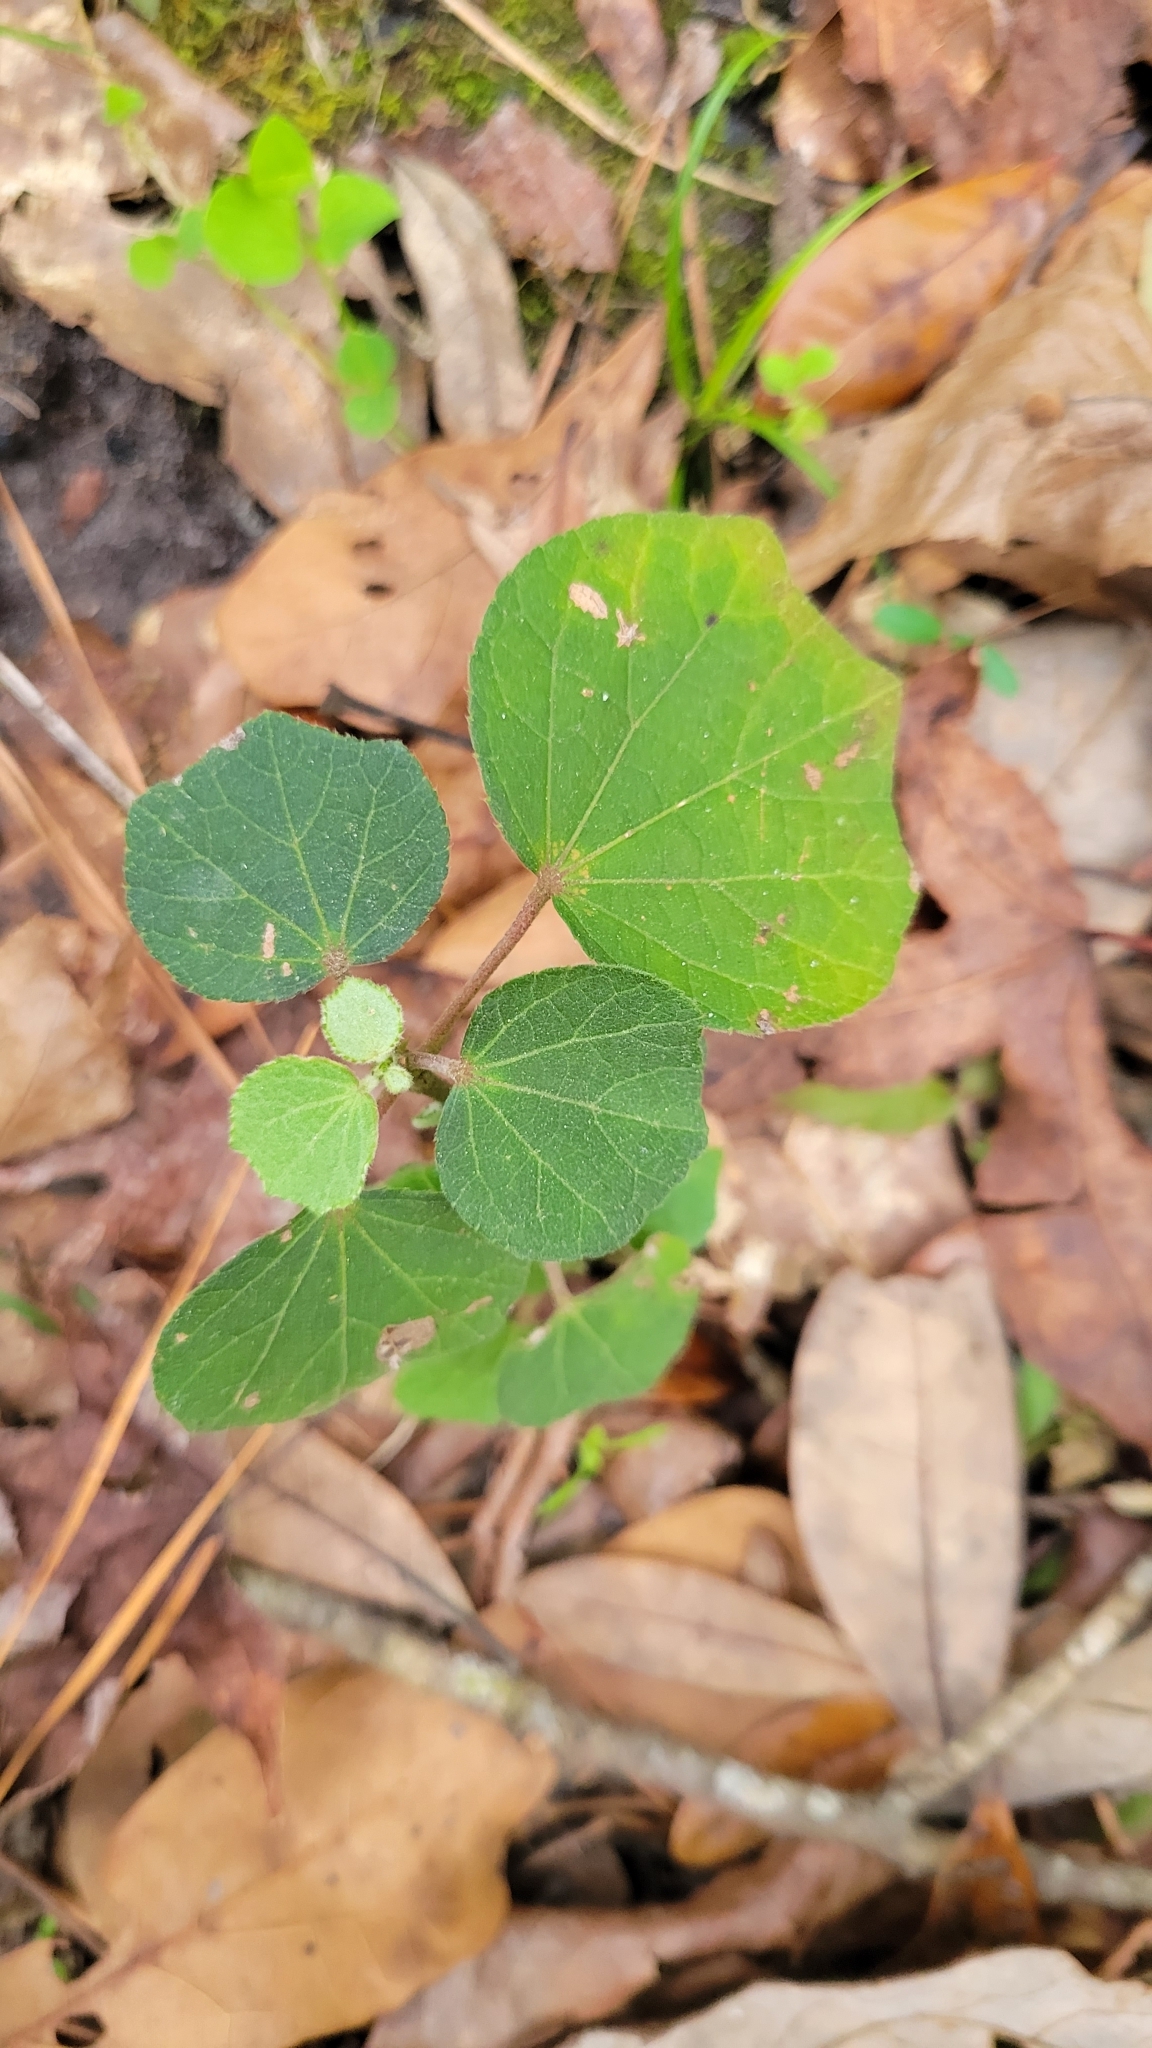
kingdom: Plantae
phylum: Tracheophyta
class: Magnoliopsida
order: Malvales
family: Malvaceae
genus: Urena
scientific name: Urena lobata
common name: Caesarweed
